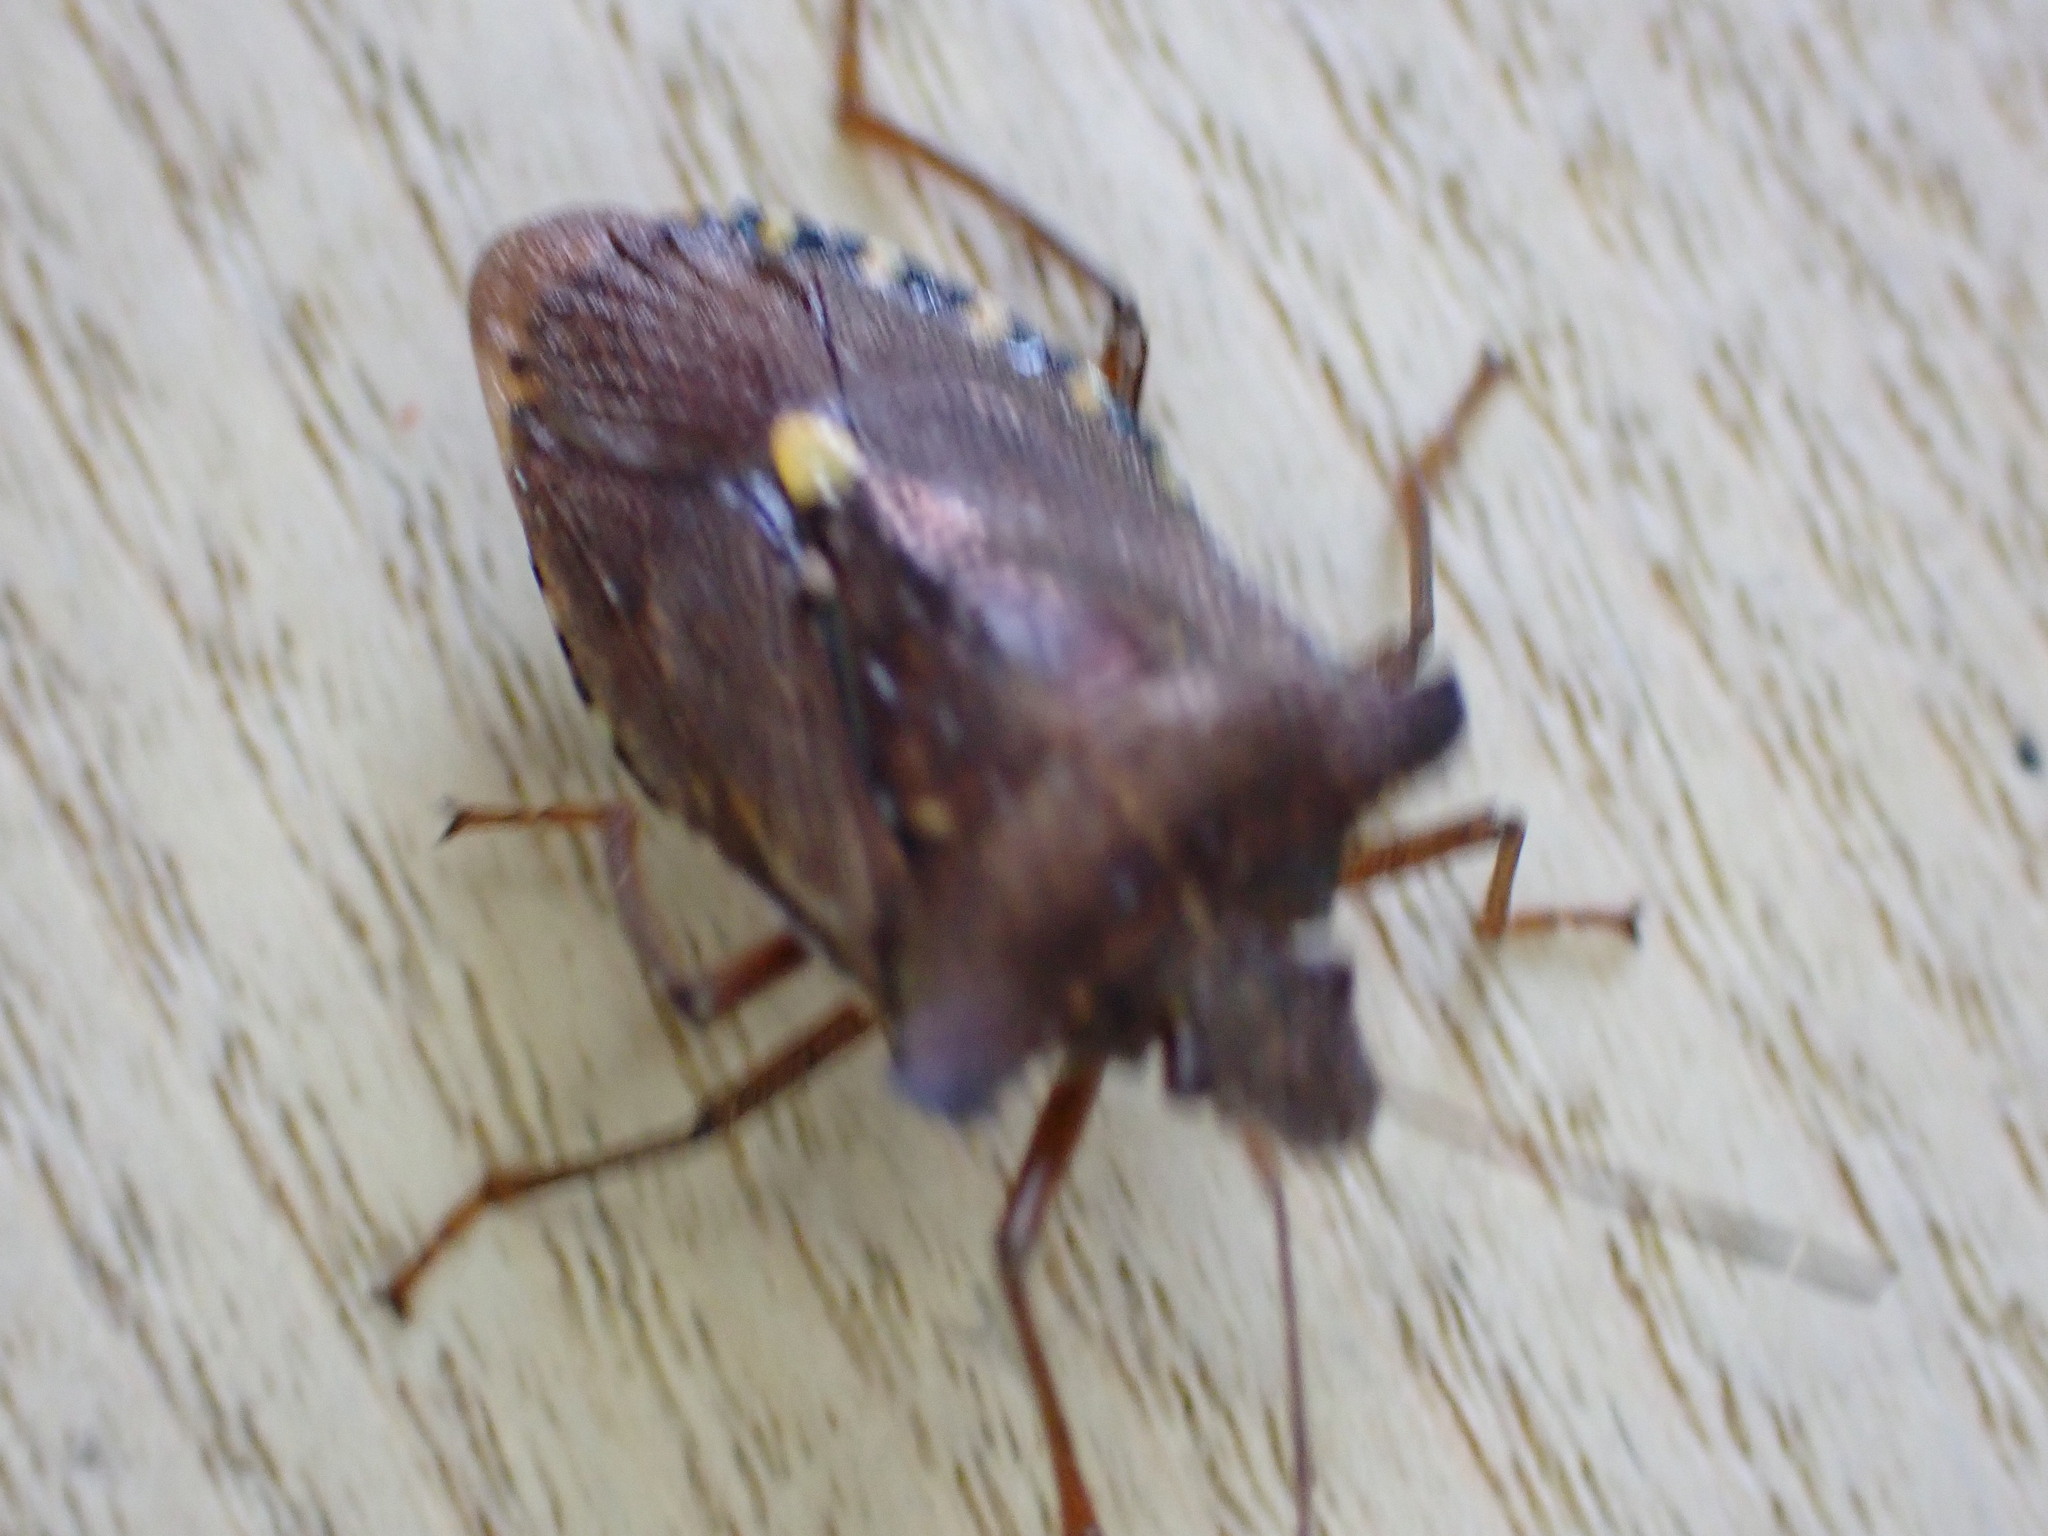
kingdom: Animalia
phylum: Arthropoda
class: Insecta
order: Hemiptera
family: Pentatomidae
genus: Pentatoma
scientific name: Pentatoma rufipes
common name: Forest bug
